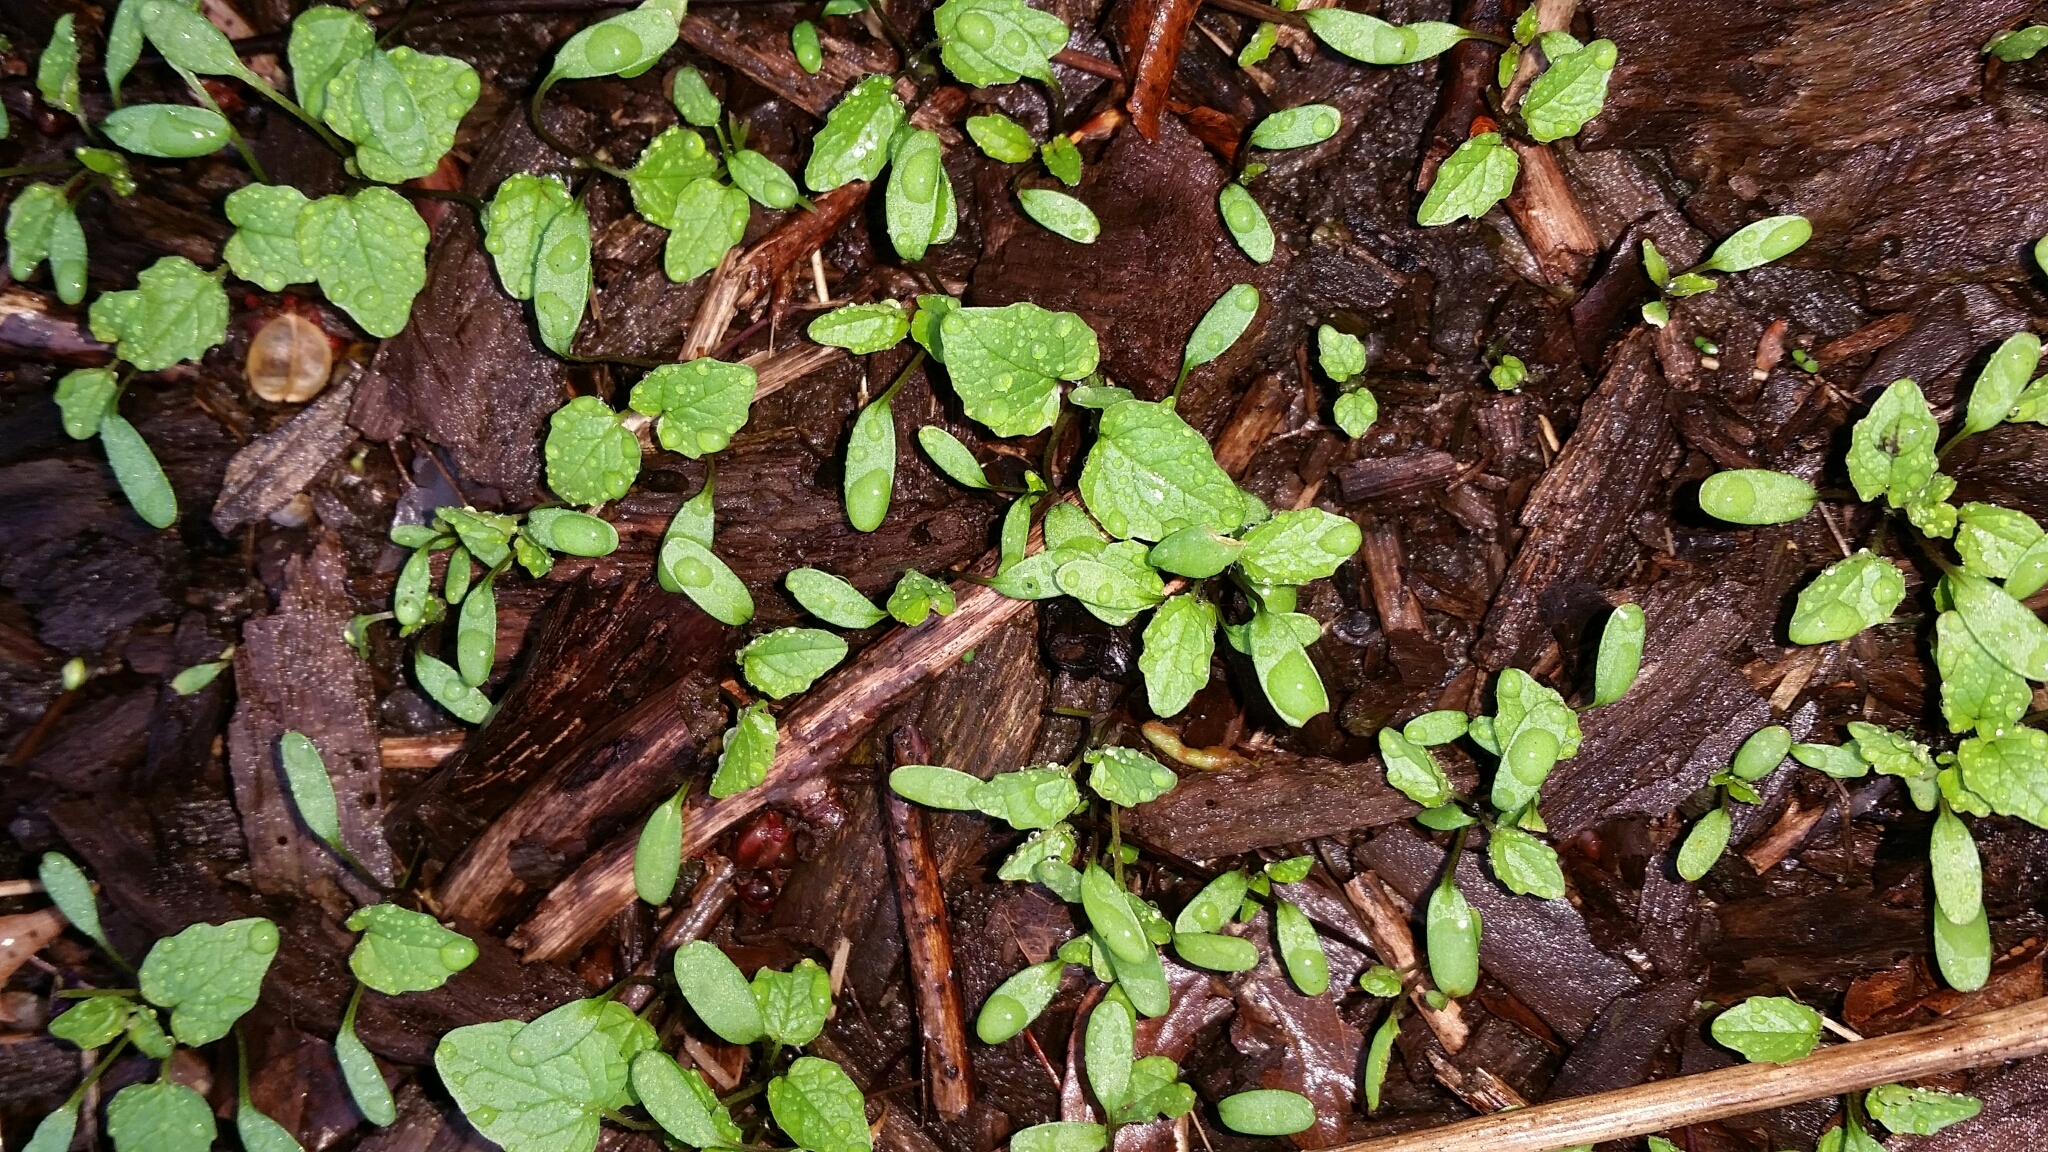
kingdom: Plantae
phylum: Tracheophyta
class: Magnoliopsida
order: Brassicales
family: Brassicaceae
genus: Alliaria
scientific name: Alliaria petiolata
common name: Garlic mustard
